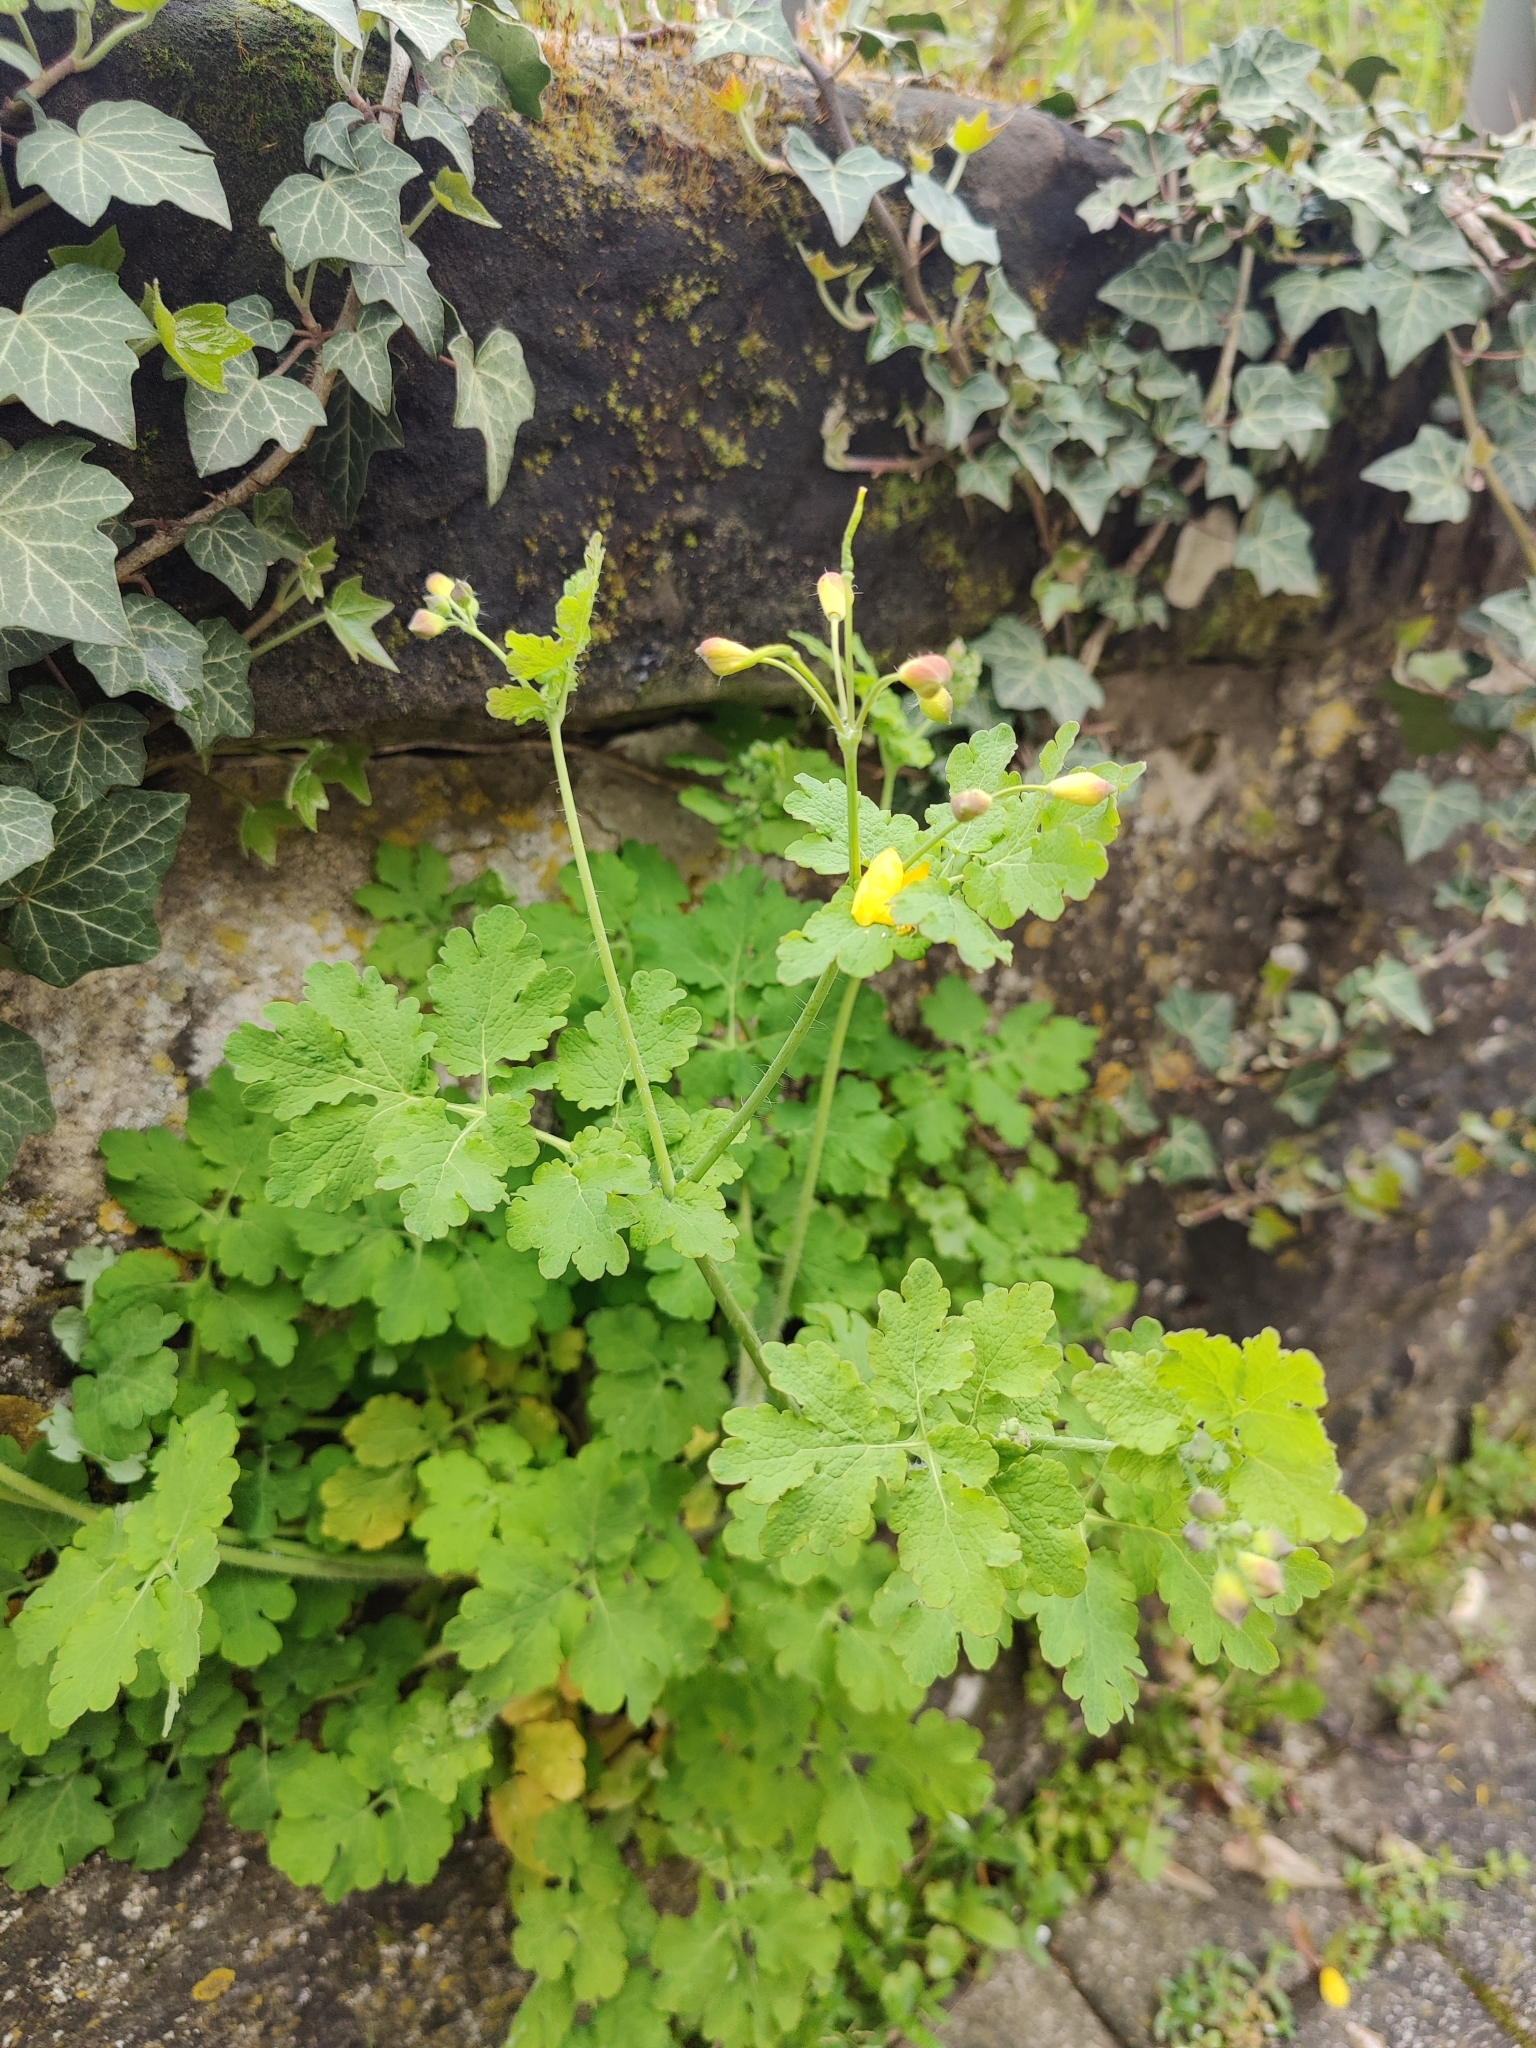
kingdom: Plantae
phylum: Tracheophyta
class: Magnoliopsida
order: Ranunculales
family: Papaveraceae
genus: Chelidonium
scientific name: Chelidonium majus
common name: Greater celandine
